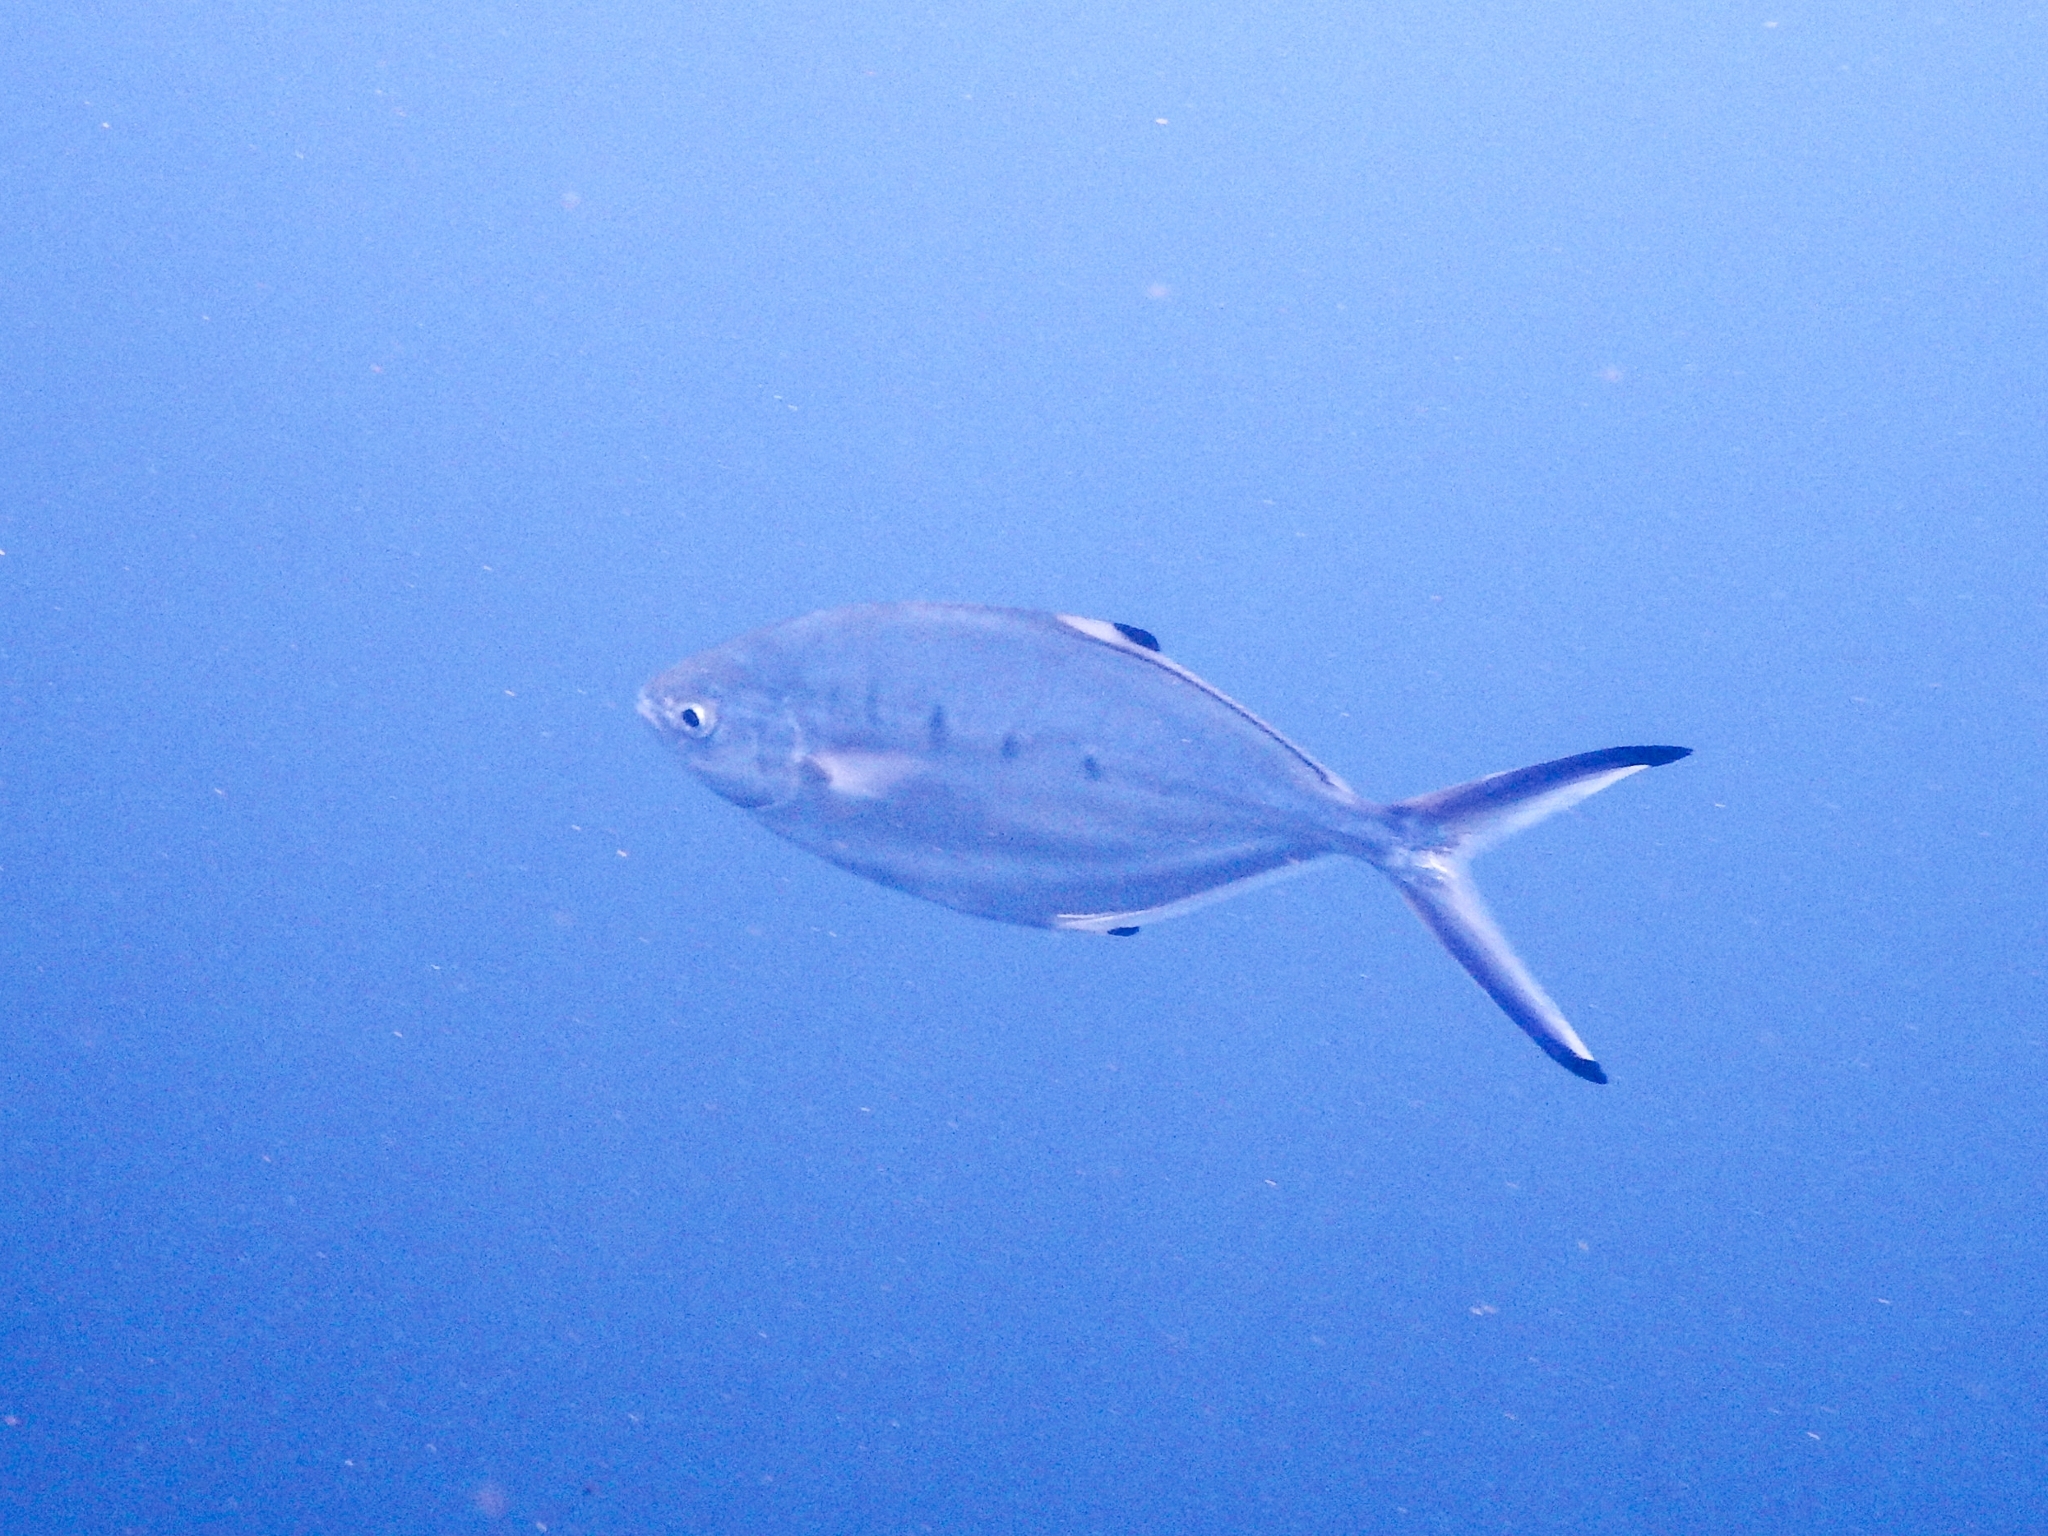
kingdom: Animalia
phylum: Chordata
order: Perciformes
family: Carangidae
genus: Trachinotus
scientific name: Trachinotus ovatus
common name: Pompano
